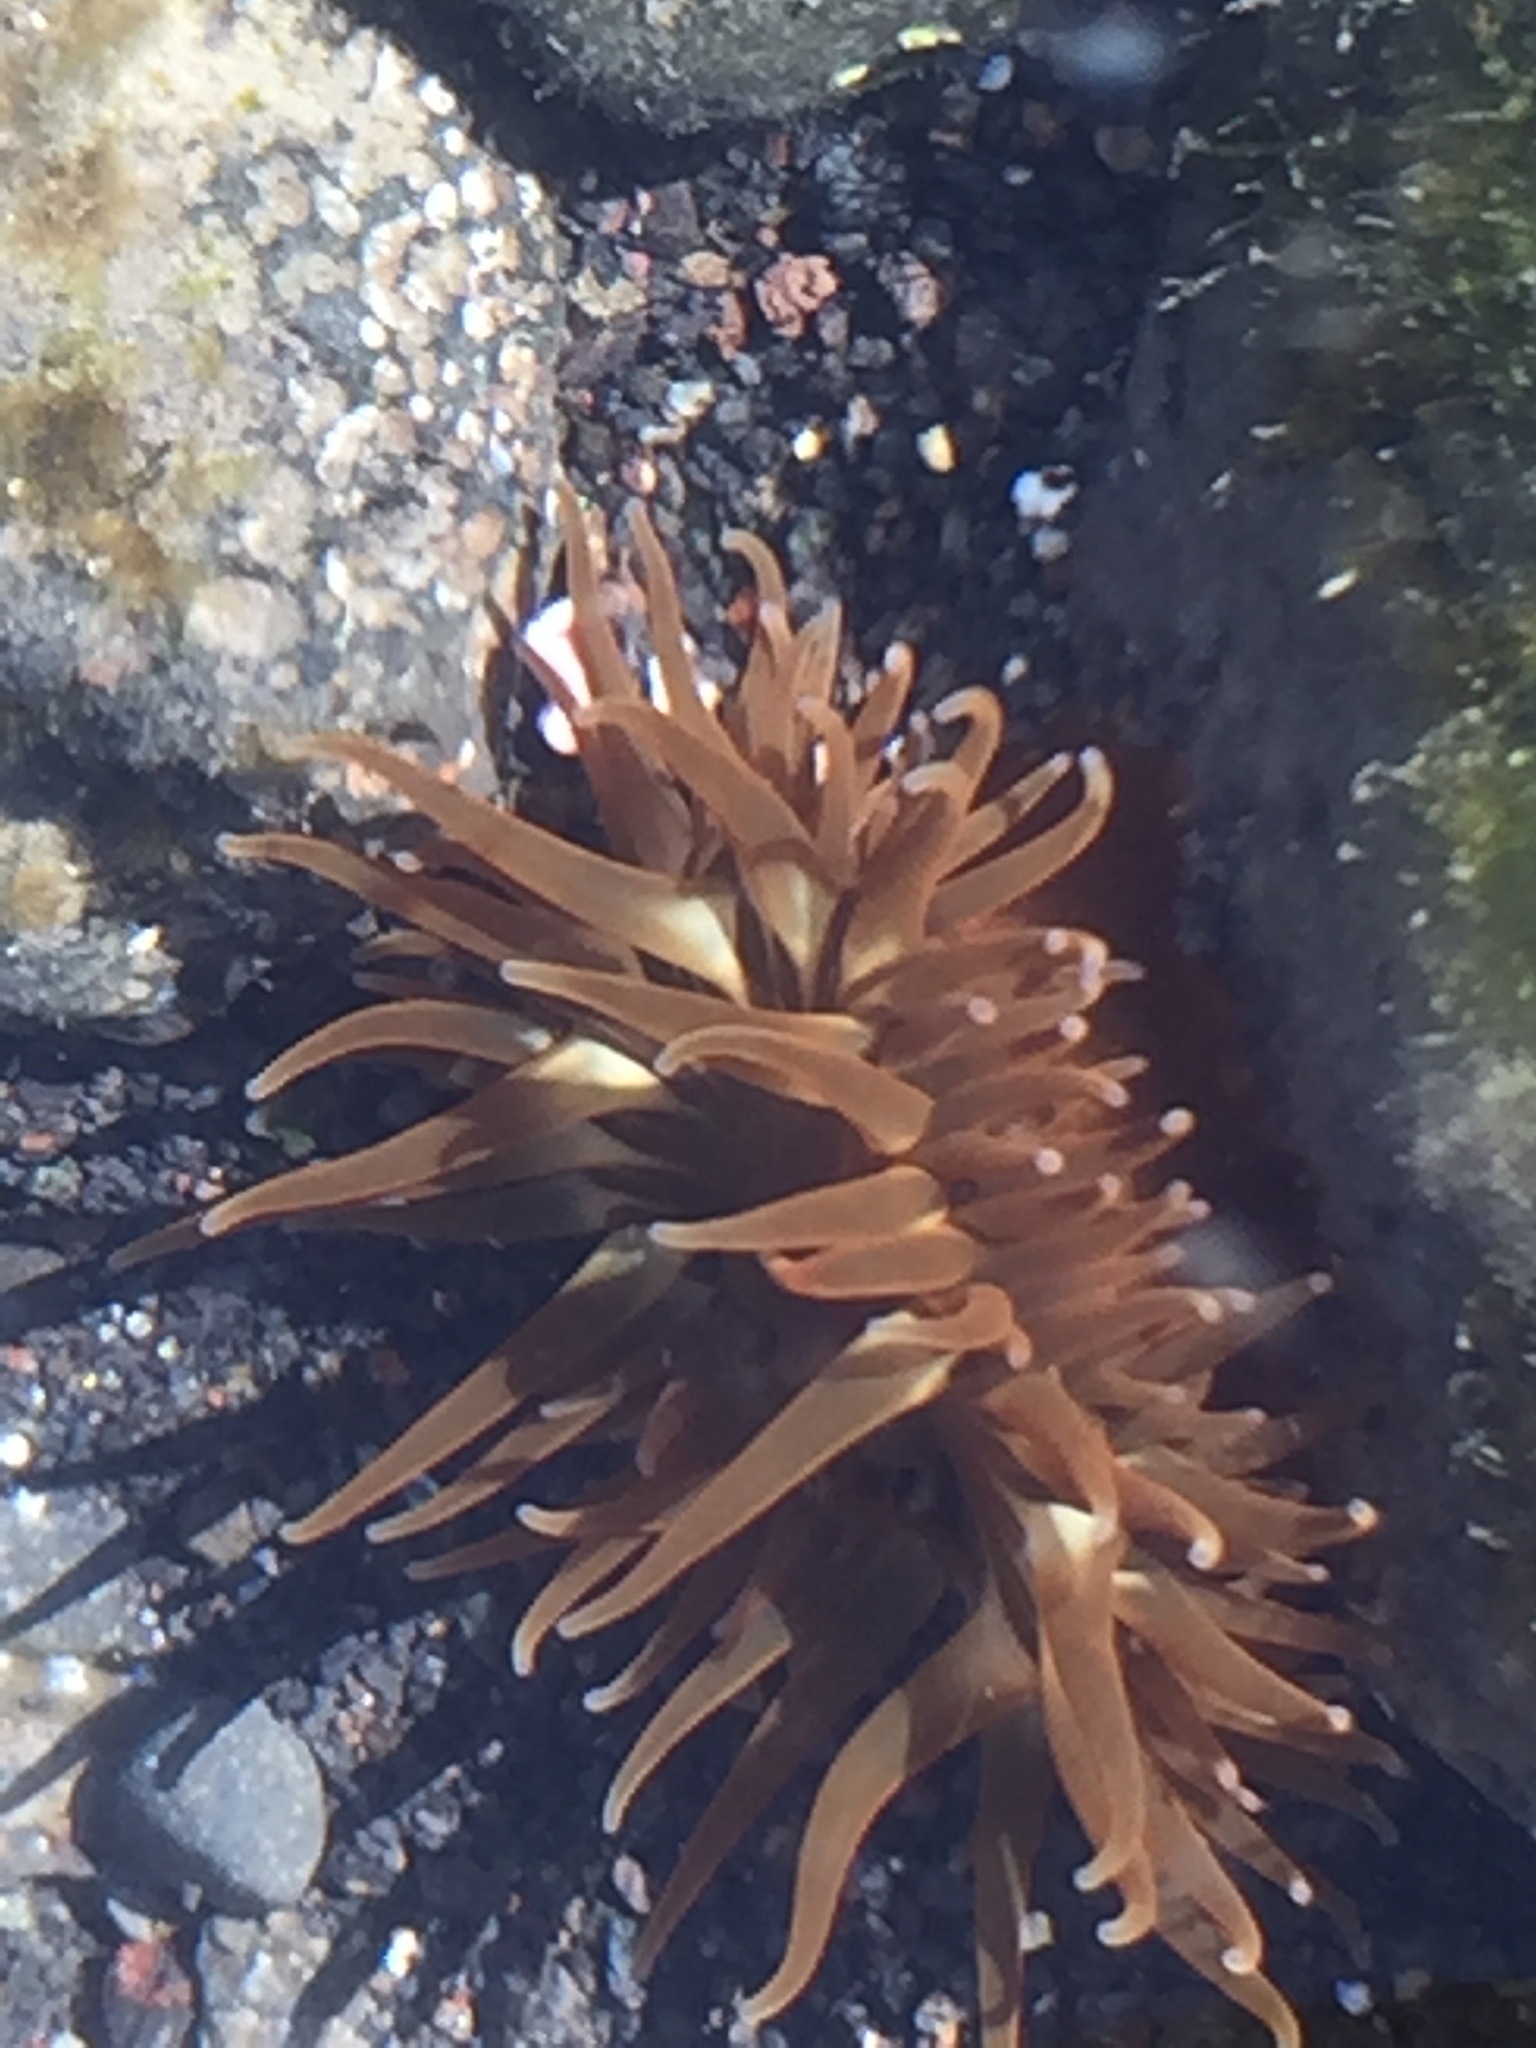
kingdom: Animalia
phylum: Cnidaria
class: Anthozoa
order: Actiniaria
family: Actiniidae
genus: Anemonia
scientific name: Anemonia sargassensis
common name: Sargassum anemone
